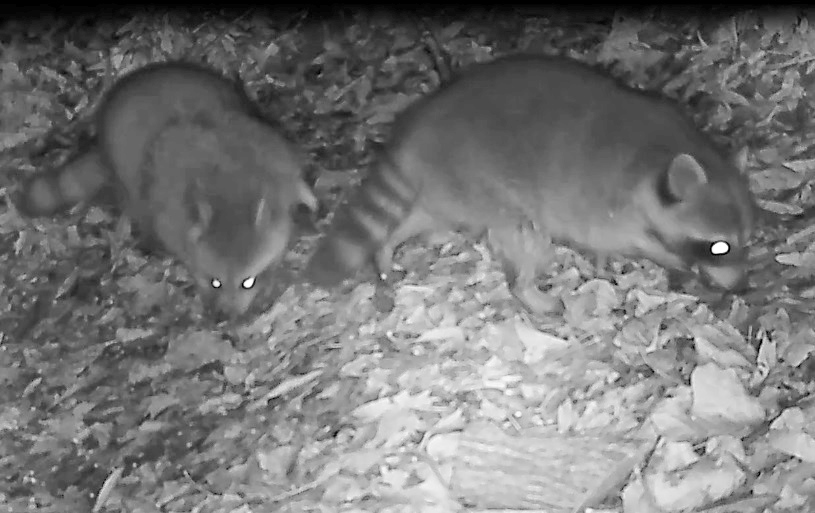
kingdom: Animalia
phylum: Chordata
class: Mammalia
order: Carnivora
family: Procyonidae
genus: Procyon
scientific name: Procyon lotor
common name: Raccoon
